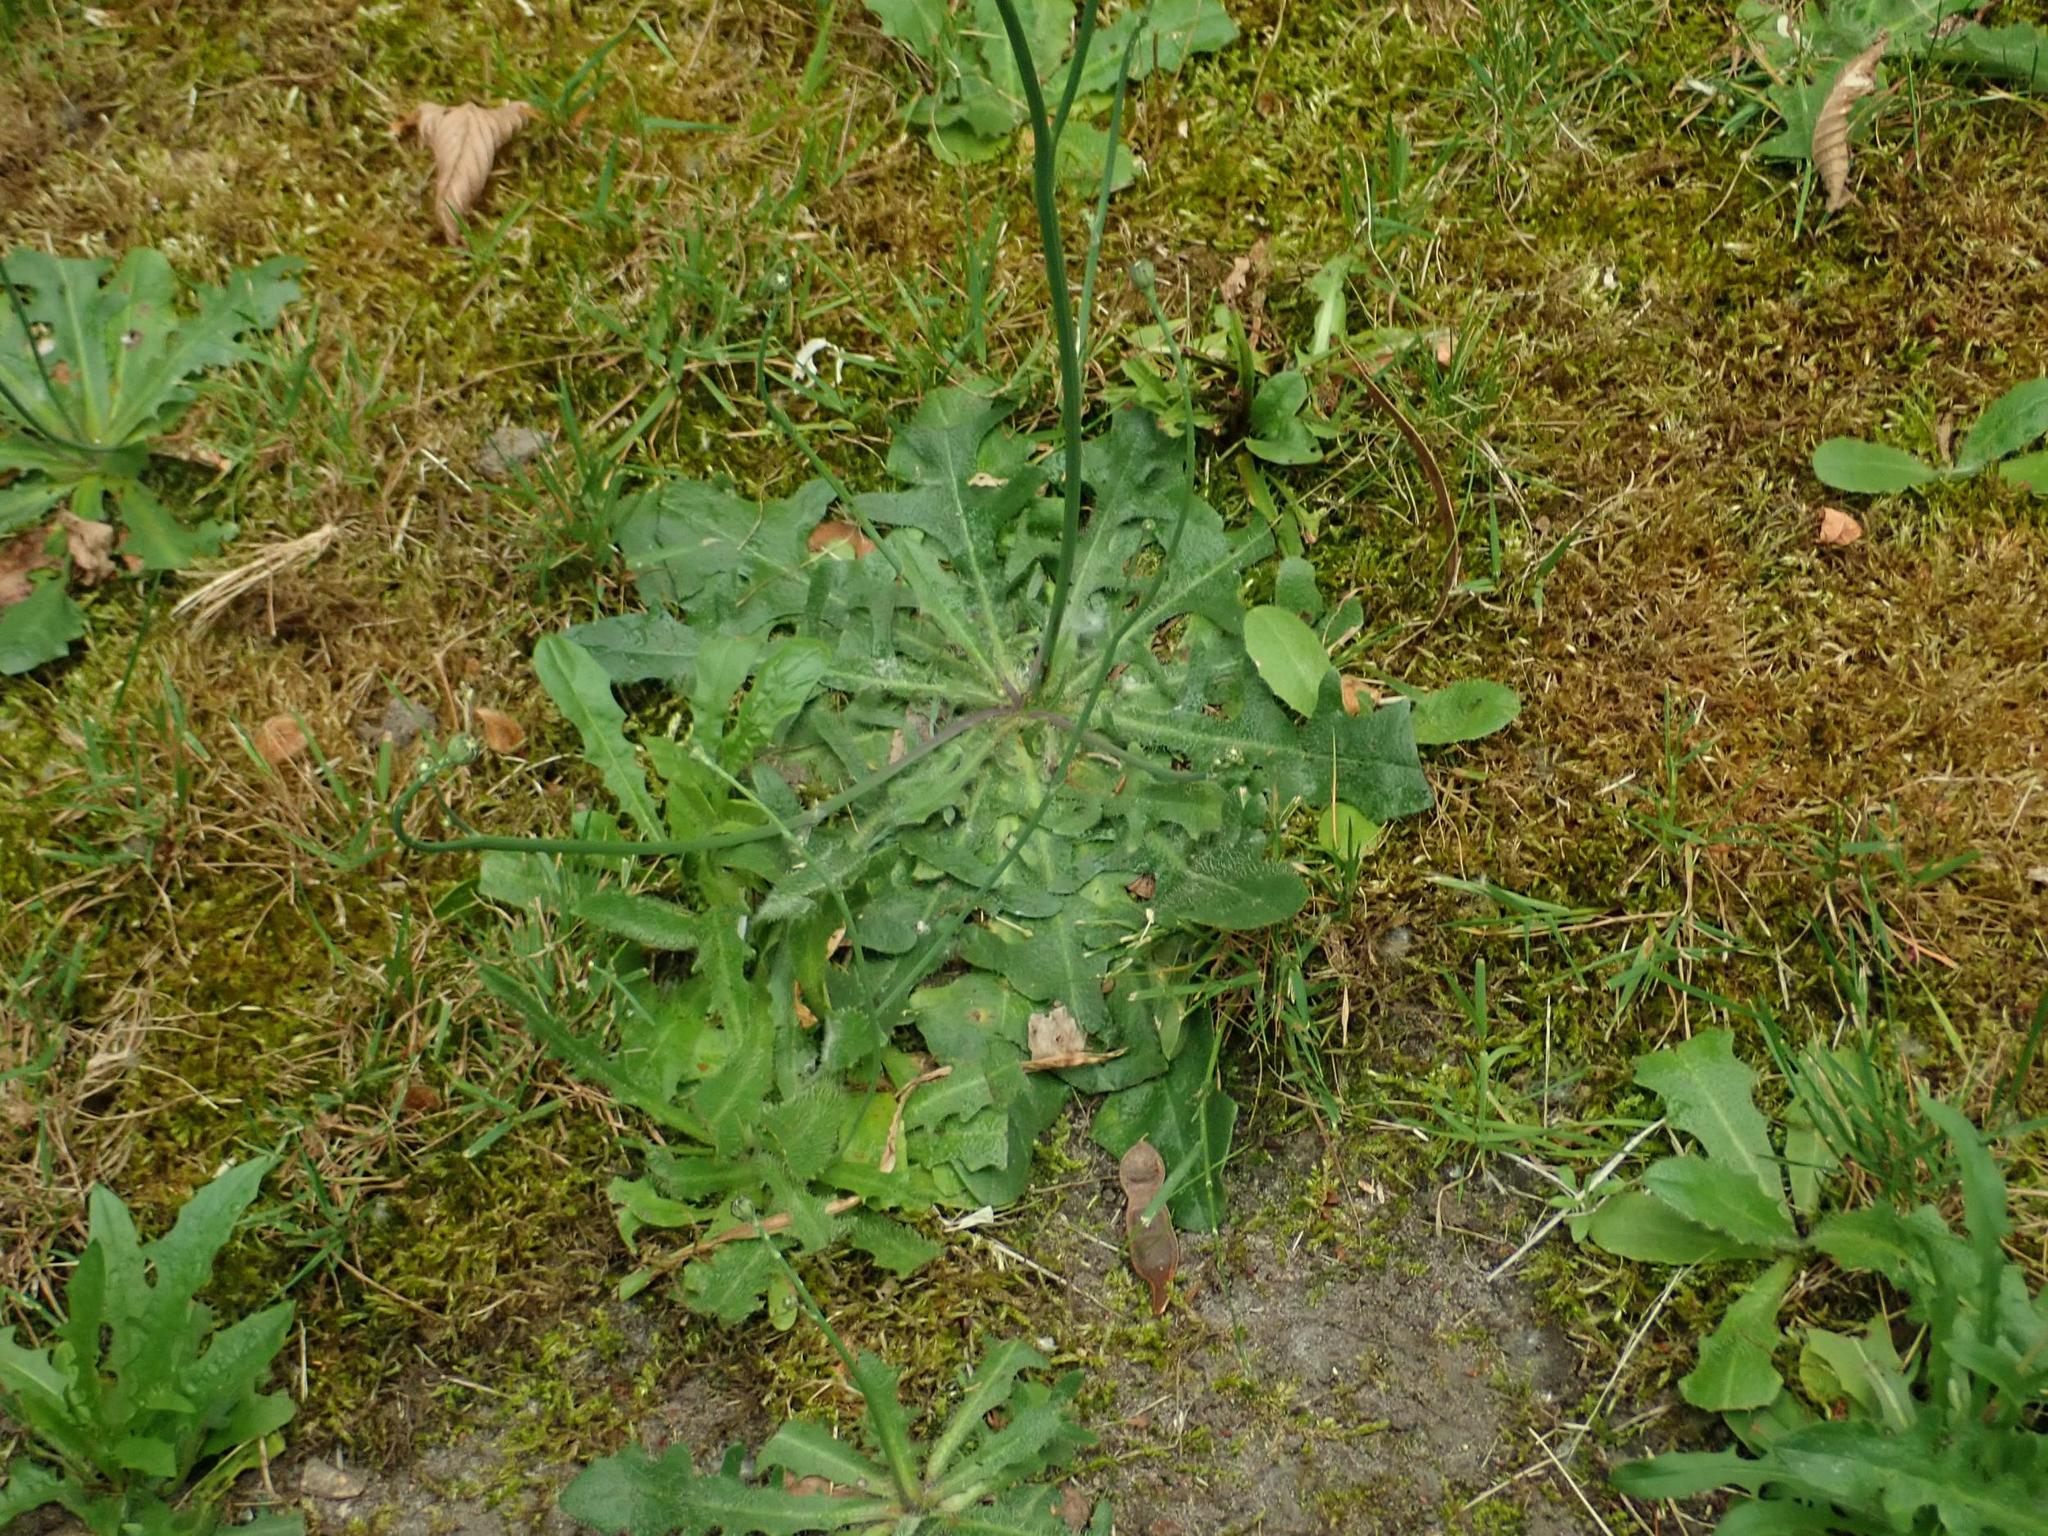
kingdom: Plantae
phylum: Tracheophyta
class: Magnoliopsida
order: Asterales
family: Asteraceae
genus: Hypochaeris
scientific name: Hypochaeris radicata
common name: Flatweed
